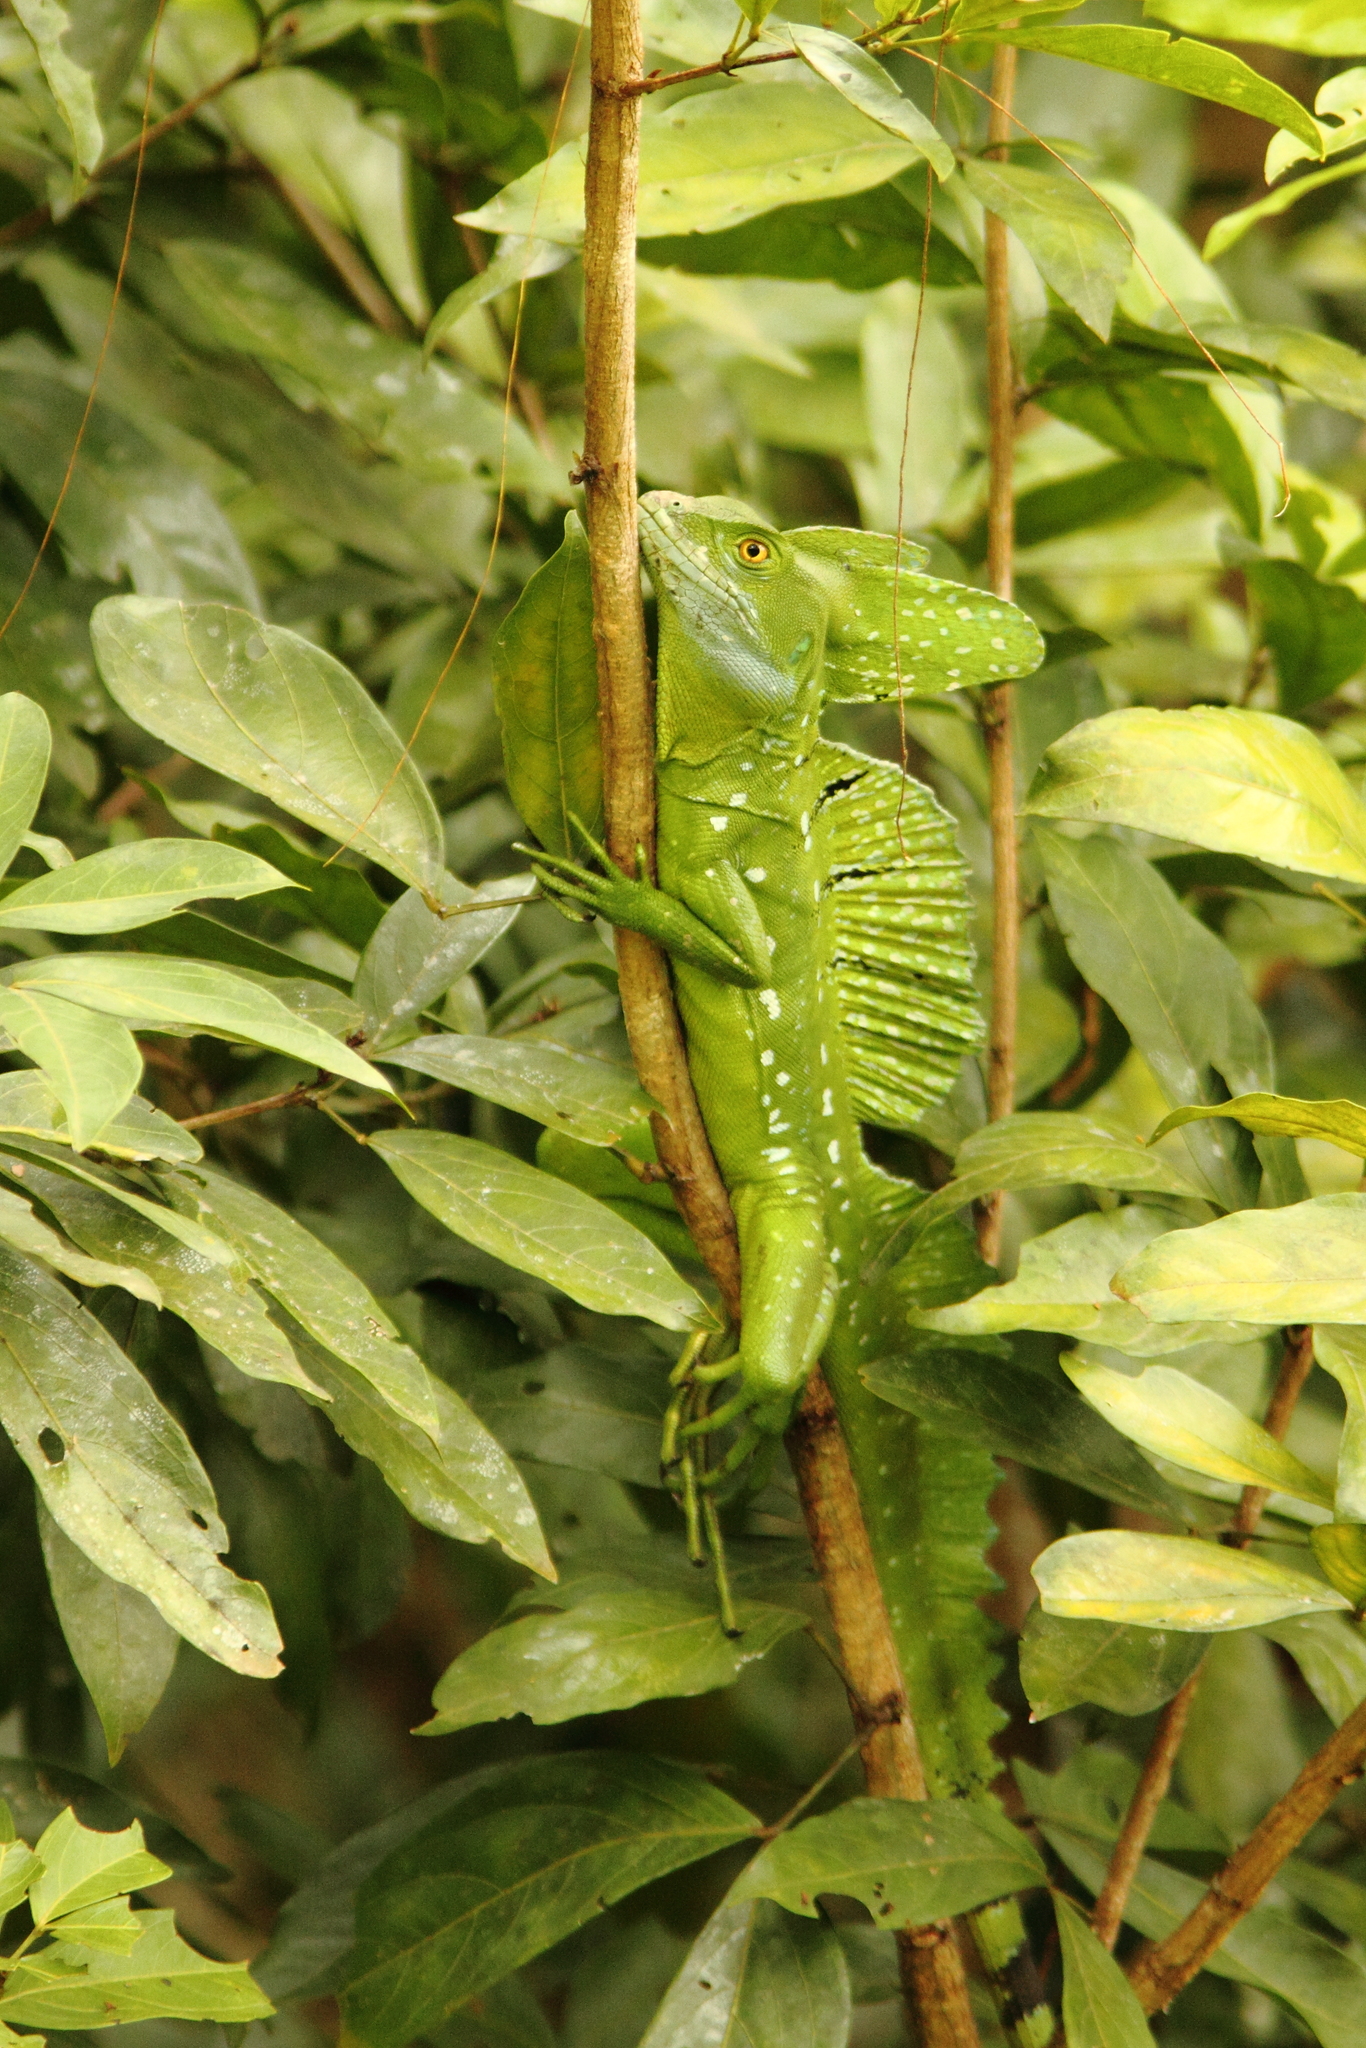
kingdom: Animalia
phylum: Chordata
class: Squamata
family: Corytophanidae
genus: Basiliscus
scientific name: Basiliscus plumifrons
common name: Green basilisk
